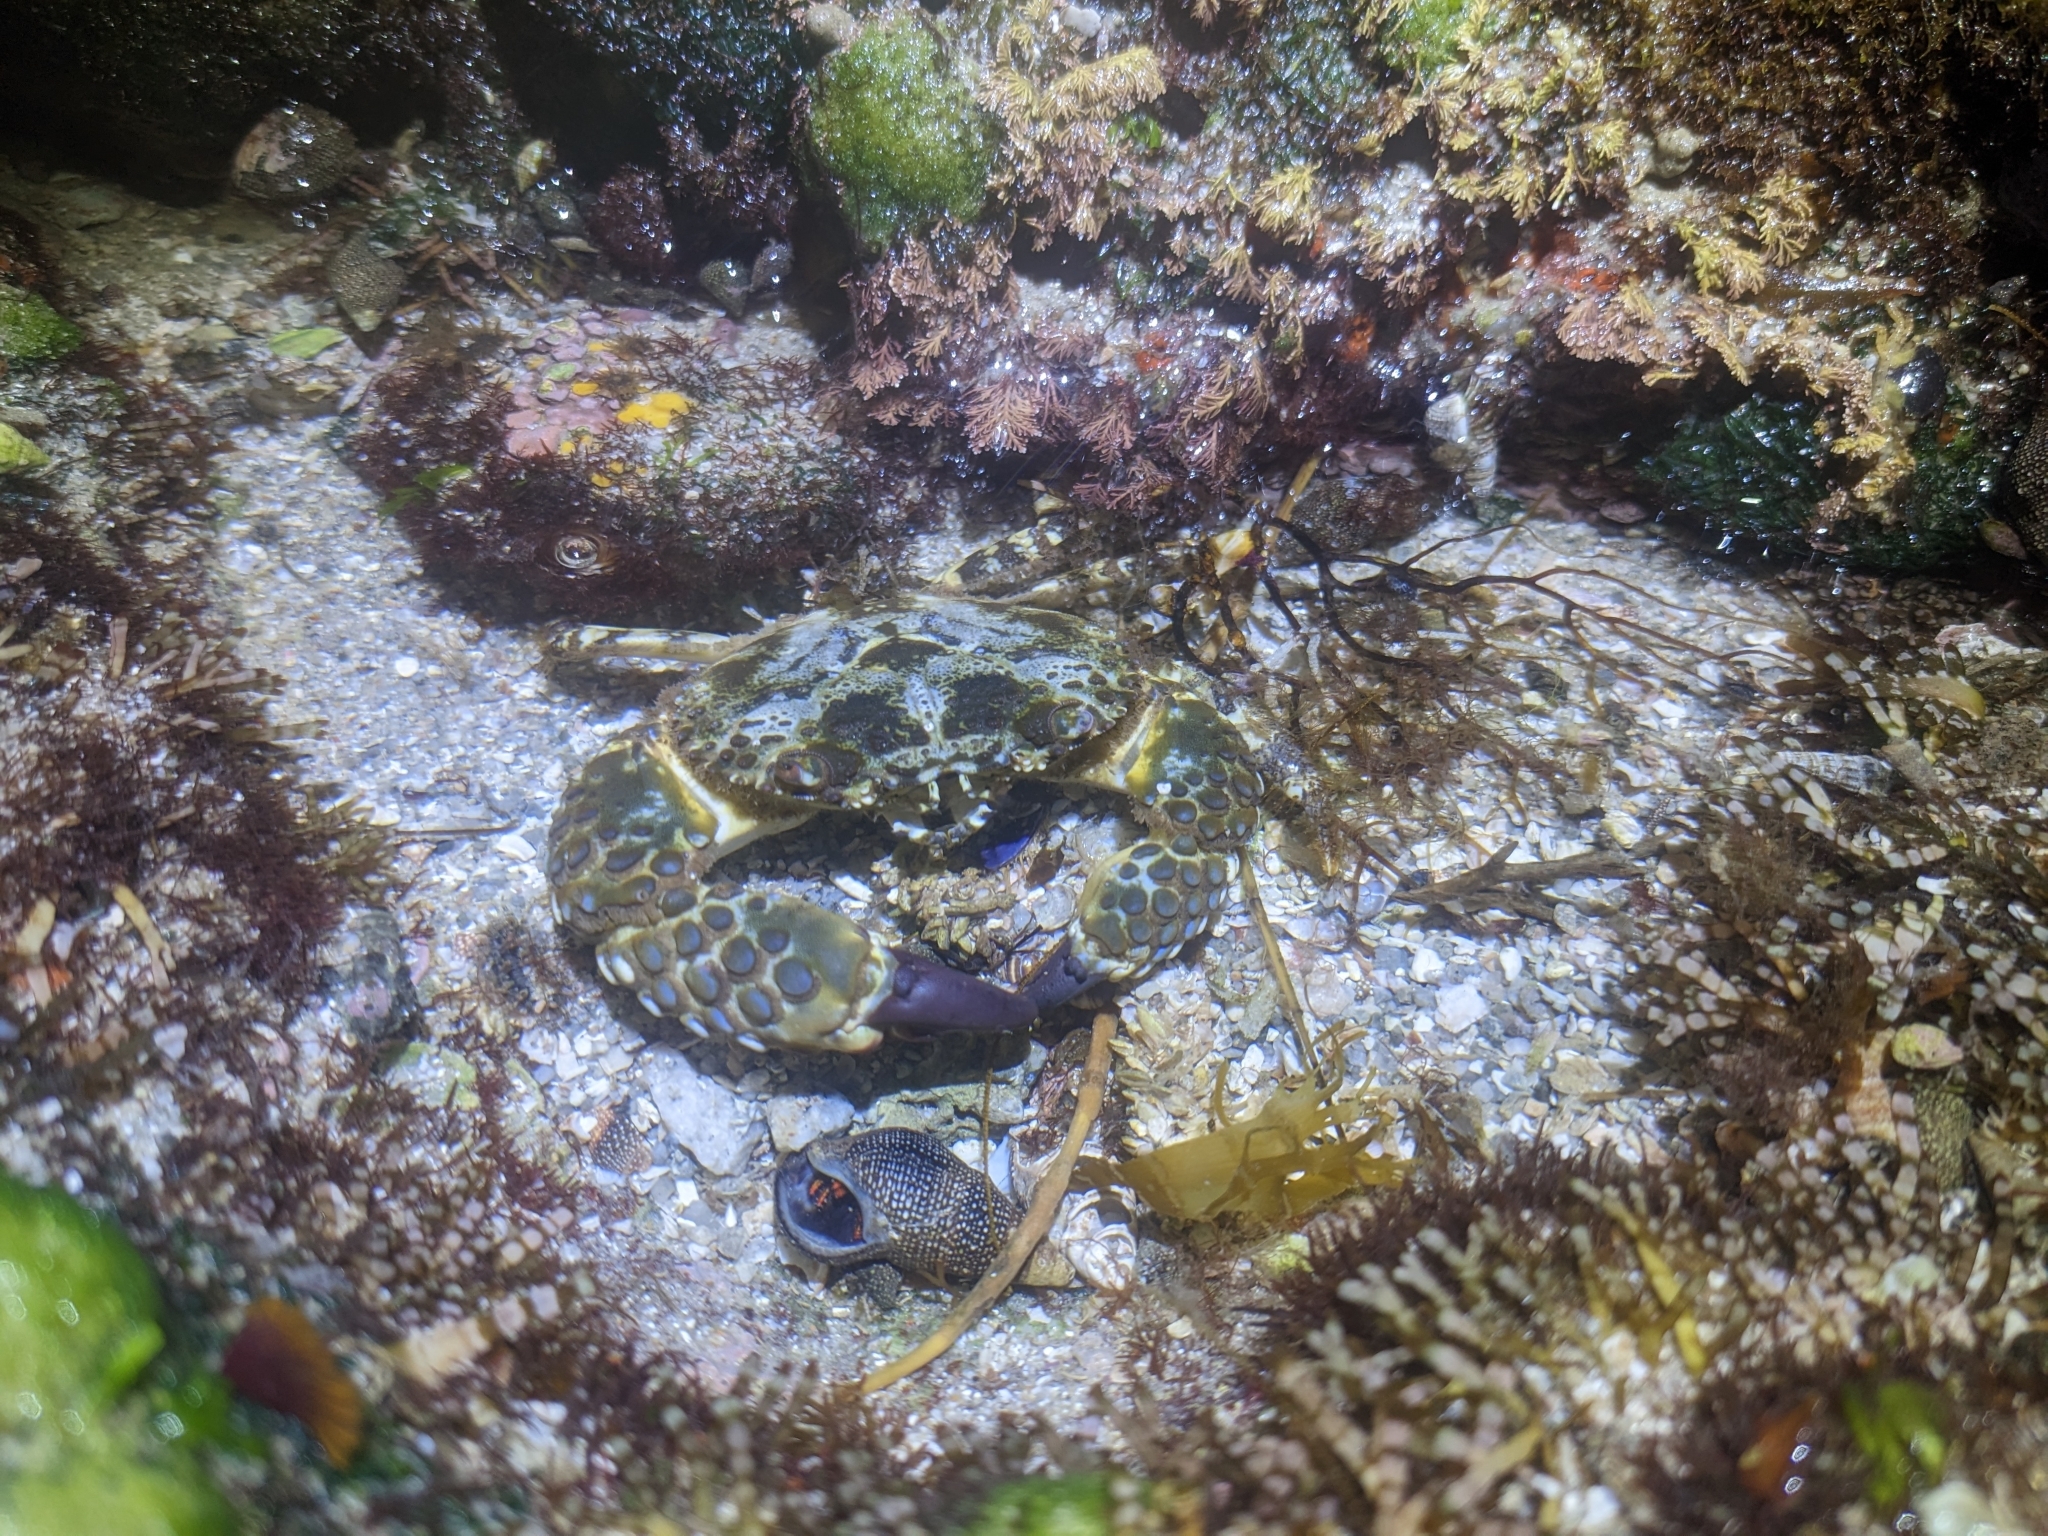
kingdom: Animalia
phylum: Arthropoda
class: Malacostraca
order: Decapoda
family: Eriphiidae
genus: Eriphia
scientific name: Eriphia squamata
